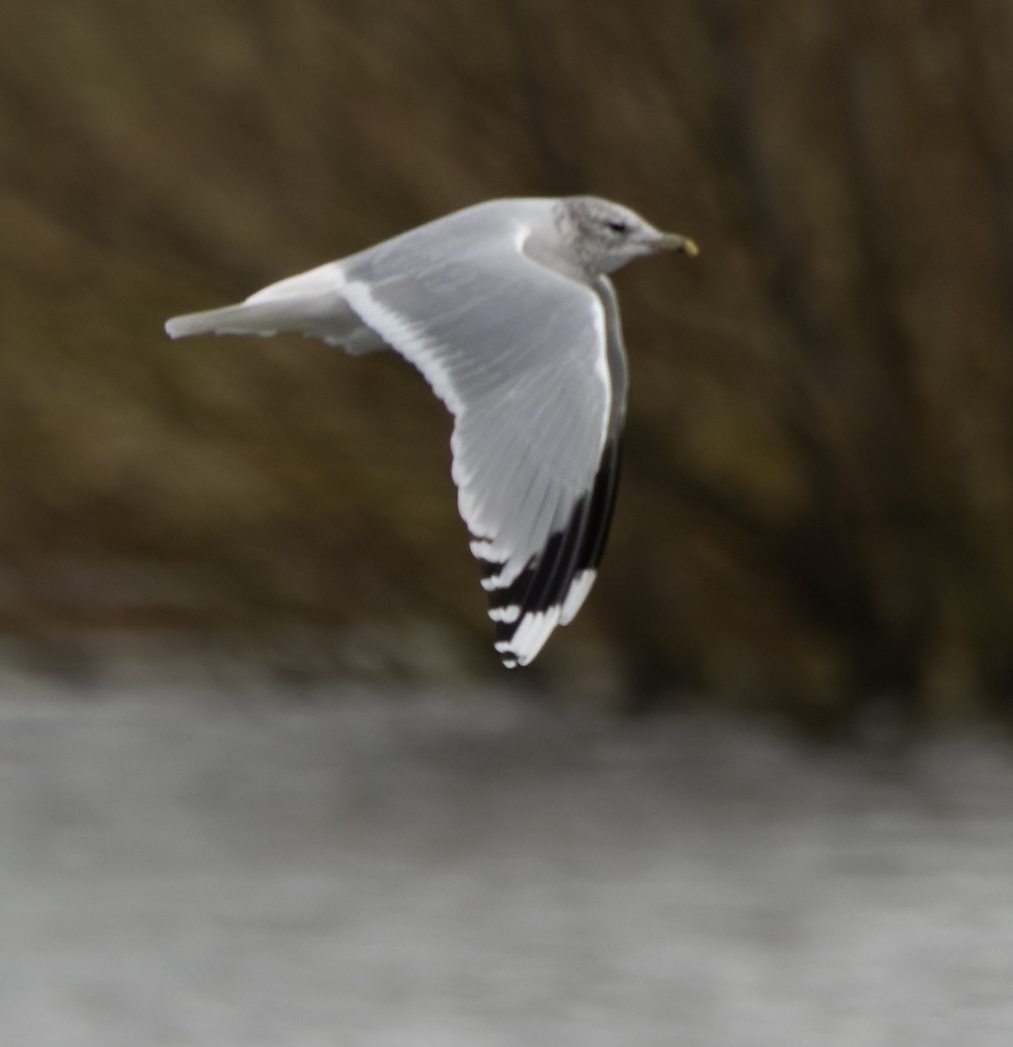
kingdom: Animalia
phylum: Chordata
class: Aves
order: Charadriiformes
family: Laridae
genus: Larus
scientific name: Larus canus
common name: Mew gull
